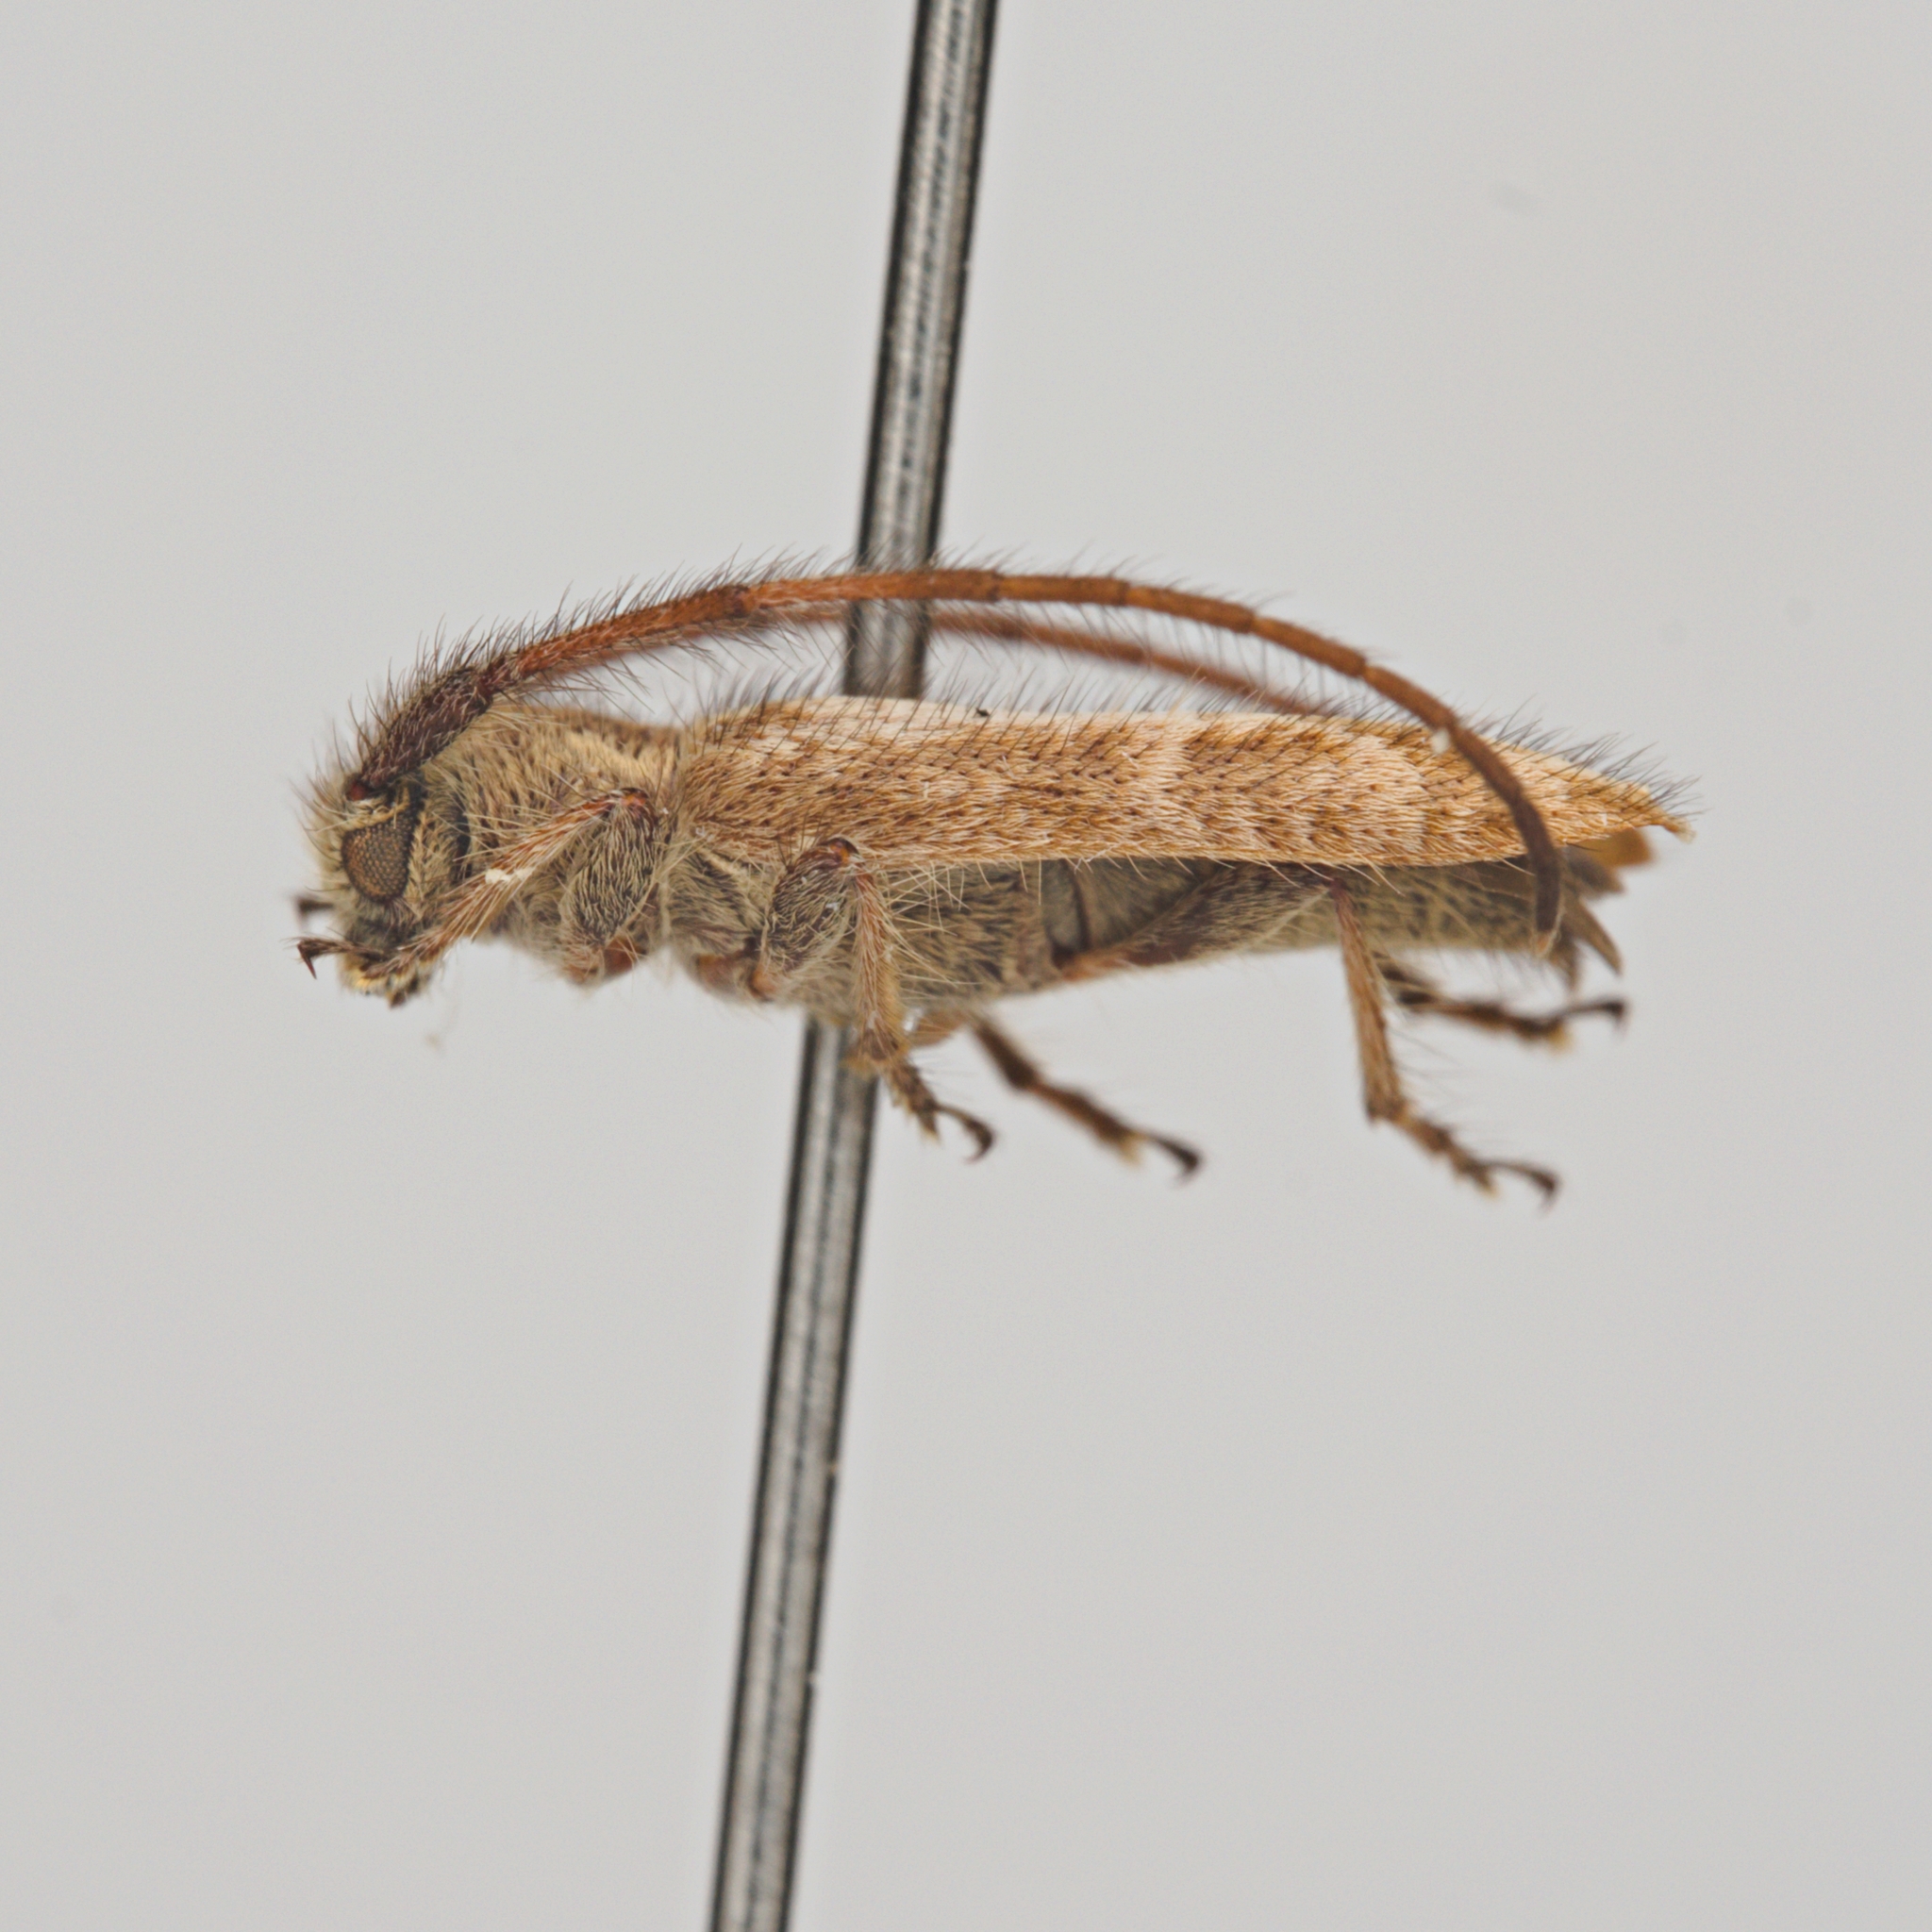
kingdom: Animalia
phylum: Arthropoda
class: Insecta
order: Coleoptera
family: Cerambycidae
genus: Eupogonius
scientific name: Eupogonius arizonensis
